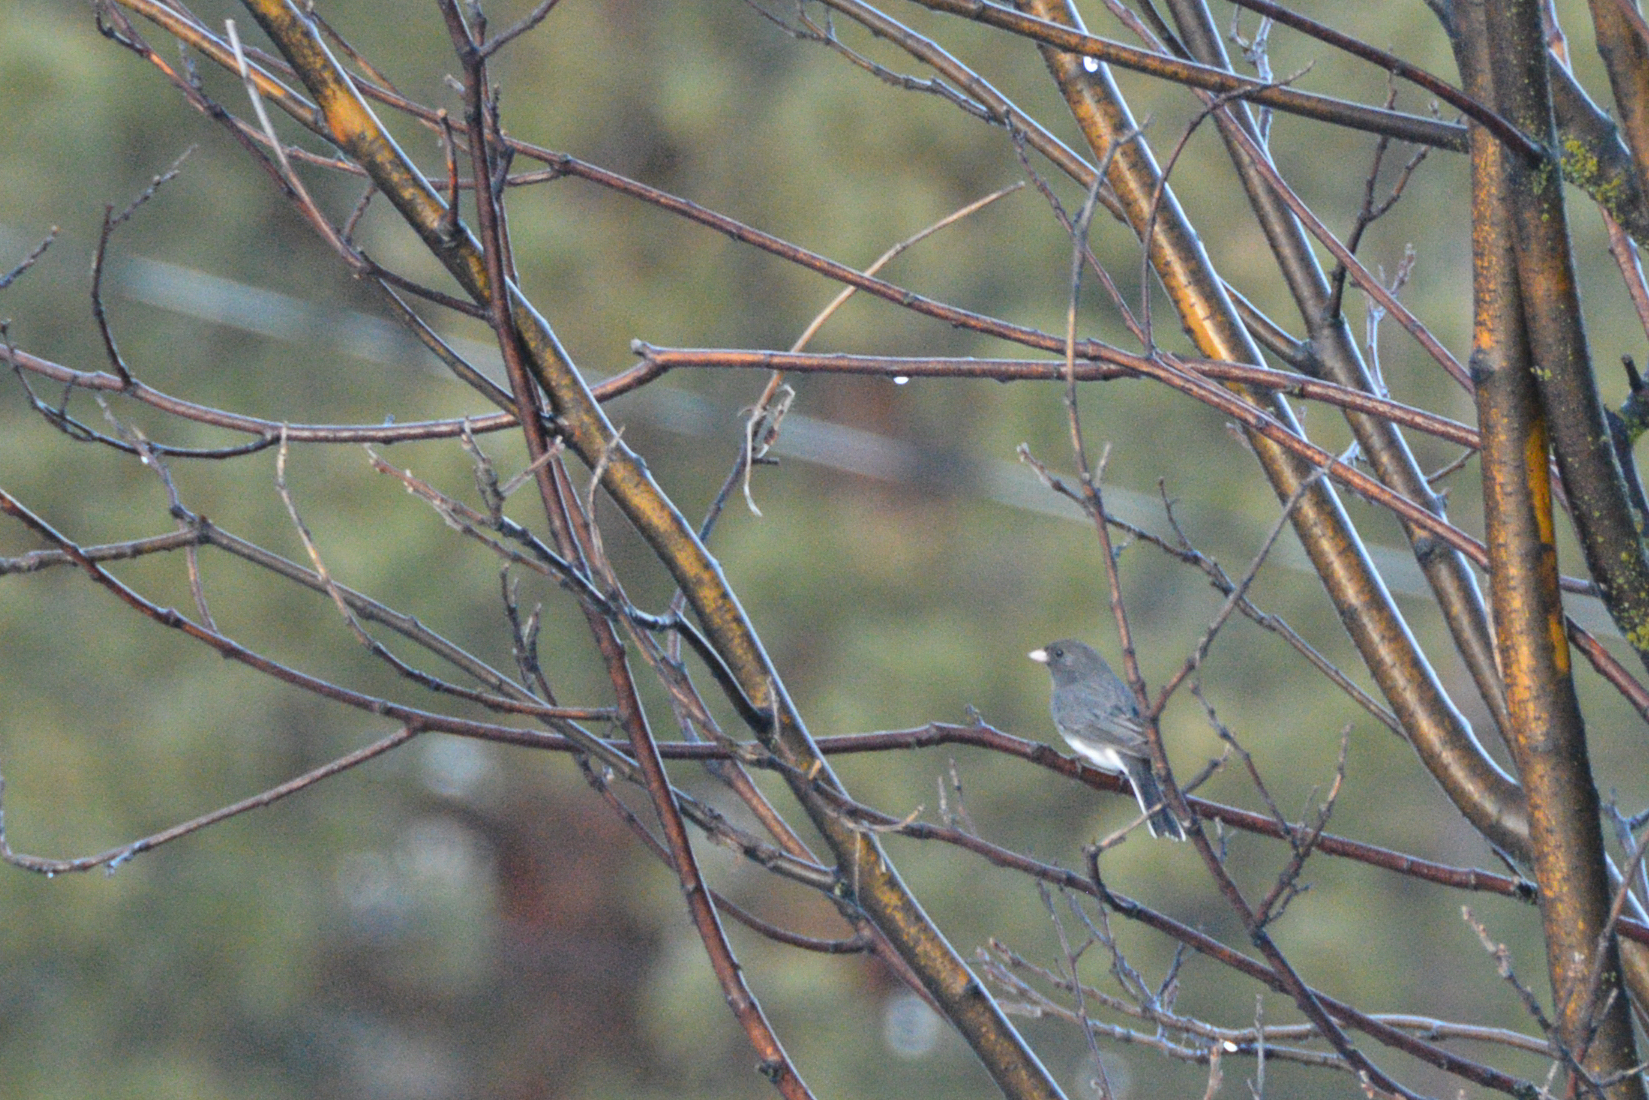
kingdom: Animalia
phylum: Chordata
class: Aves
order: Passeriformes
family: Passerellidae
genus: Junco
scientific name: Junco hyemalis
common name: Dark-eyed junco
